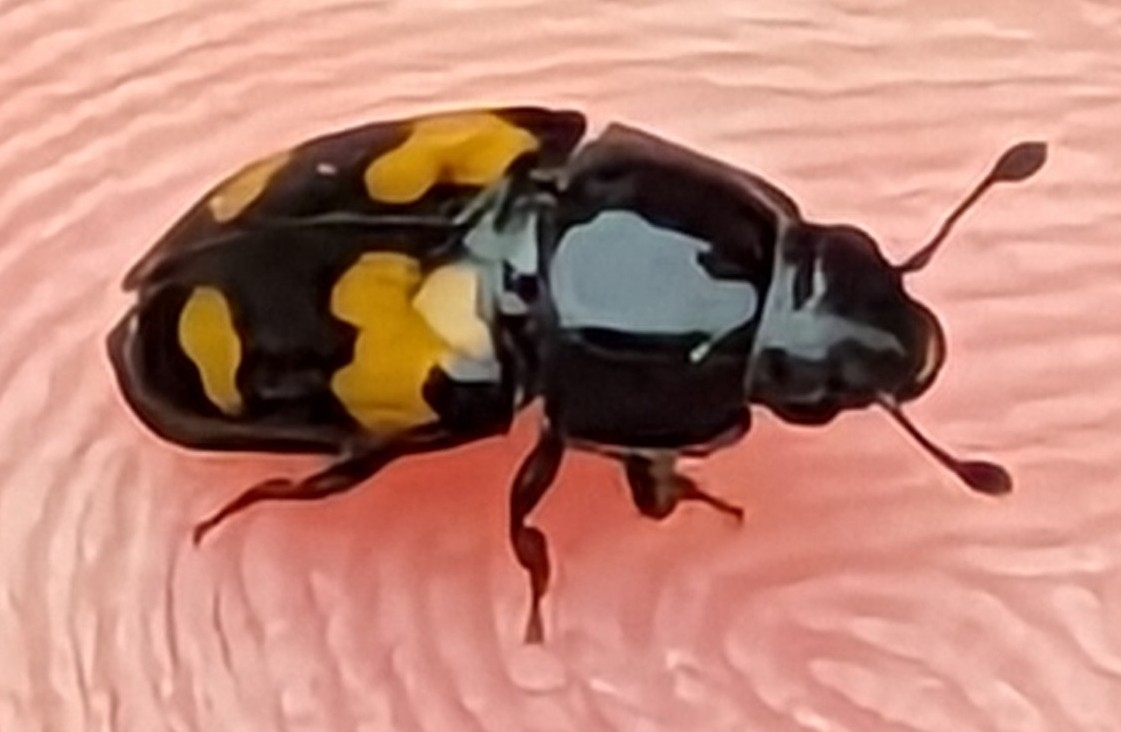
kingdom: Animalia
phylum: Arthropoda
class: Insecta
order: Coleoptera
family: Nitidulidae
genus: Glischrochilus
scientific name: Glischrochilus fasciatus
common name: Picnic beetle
